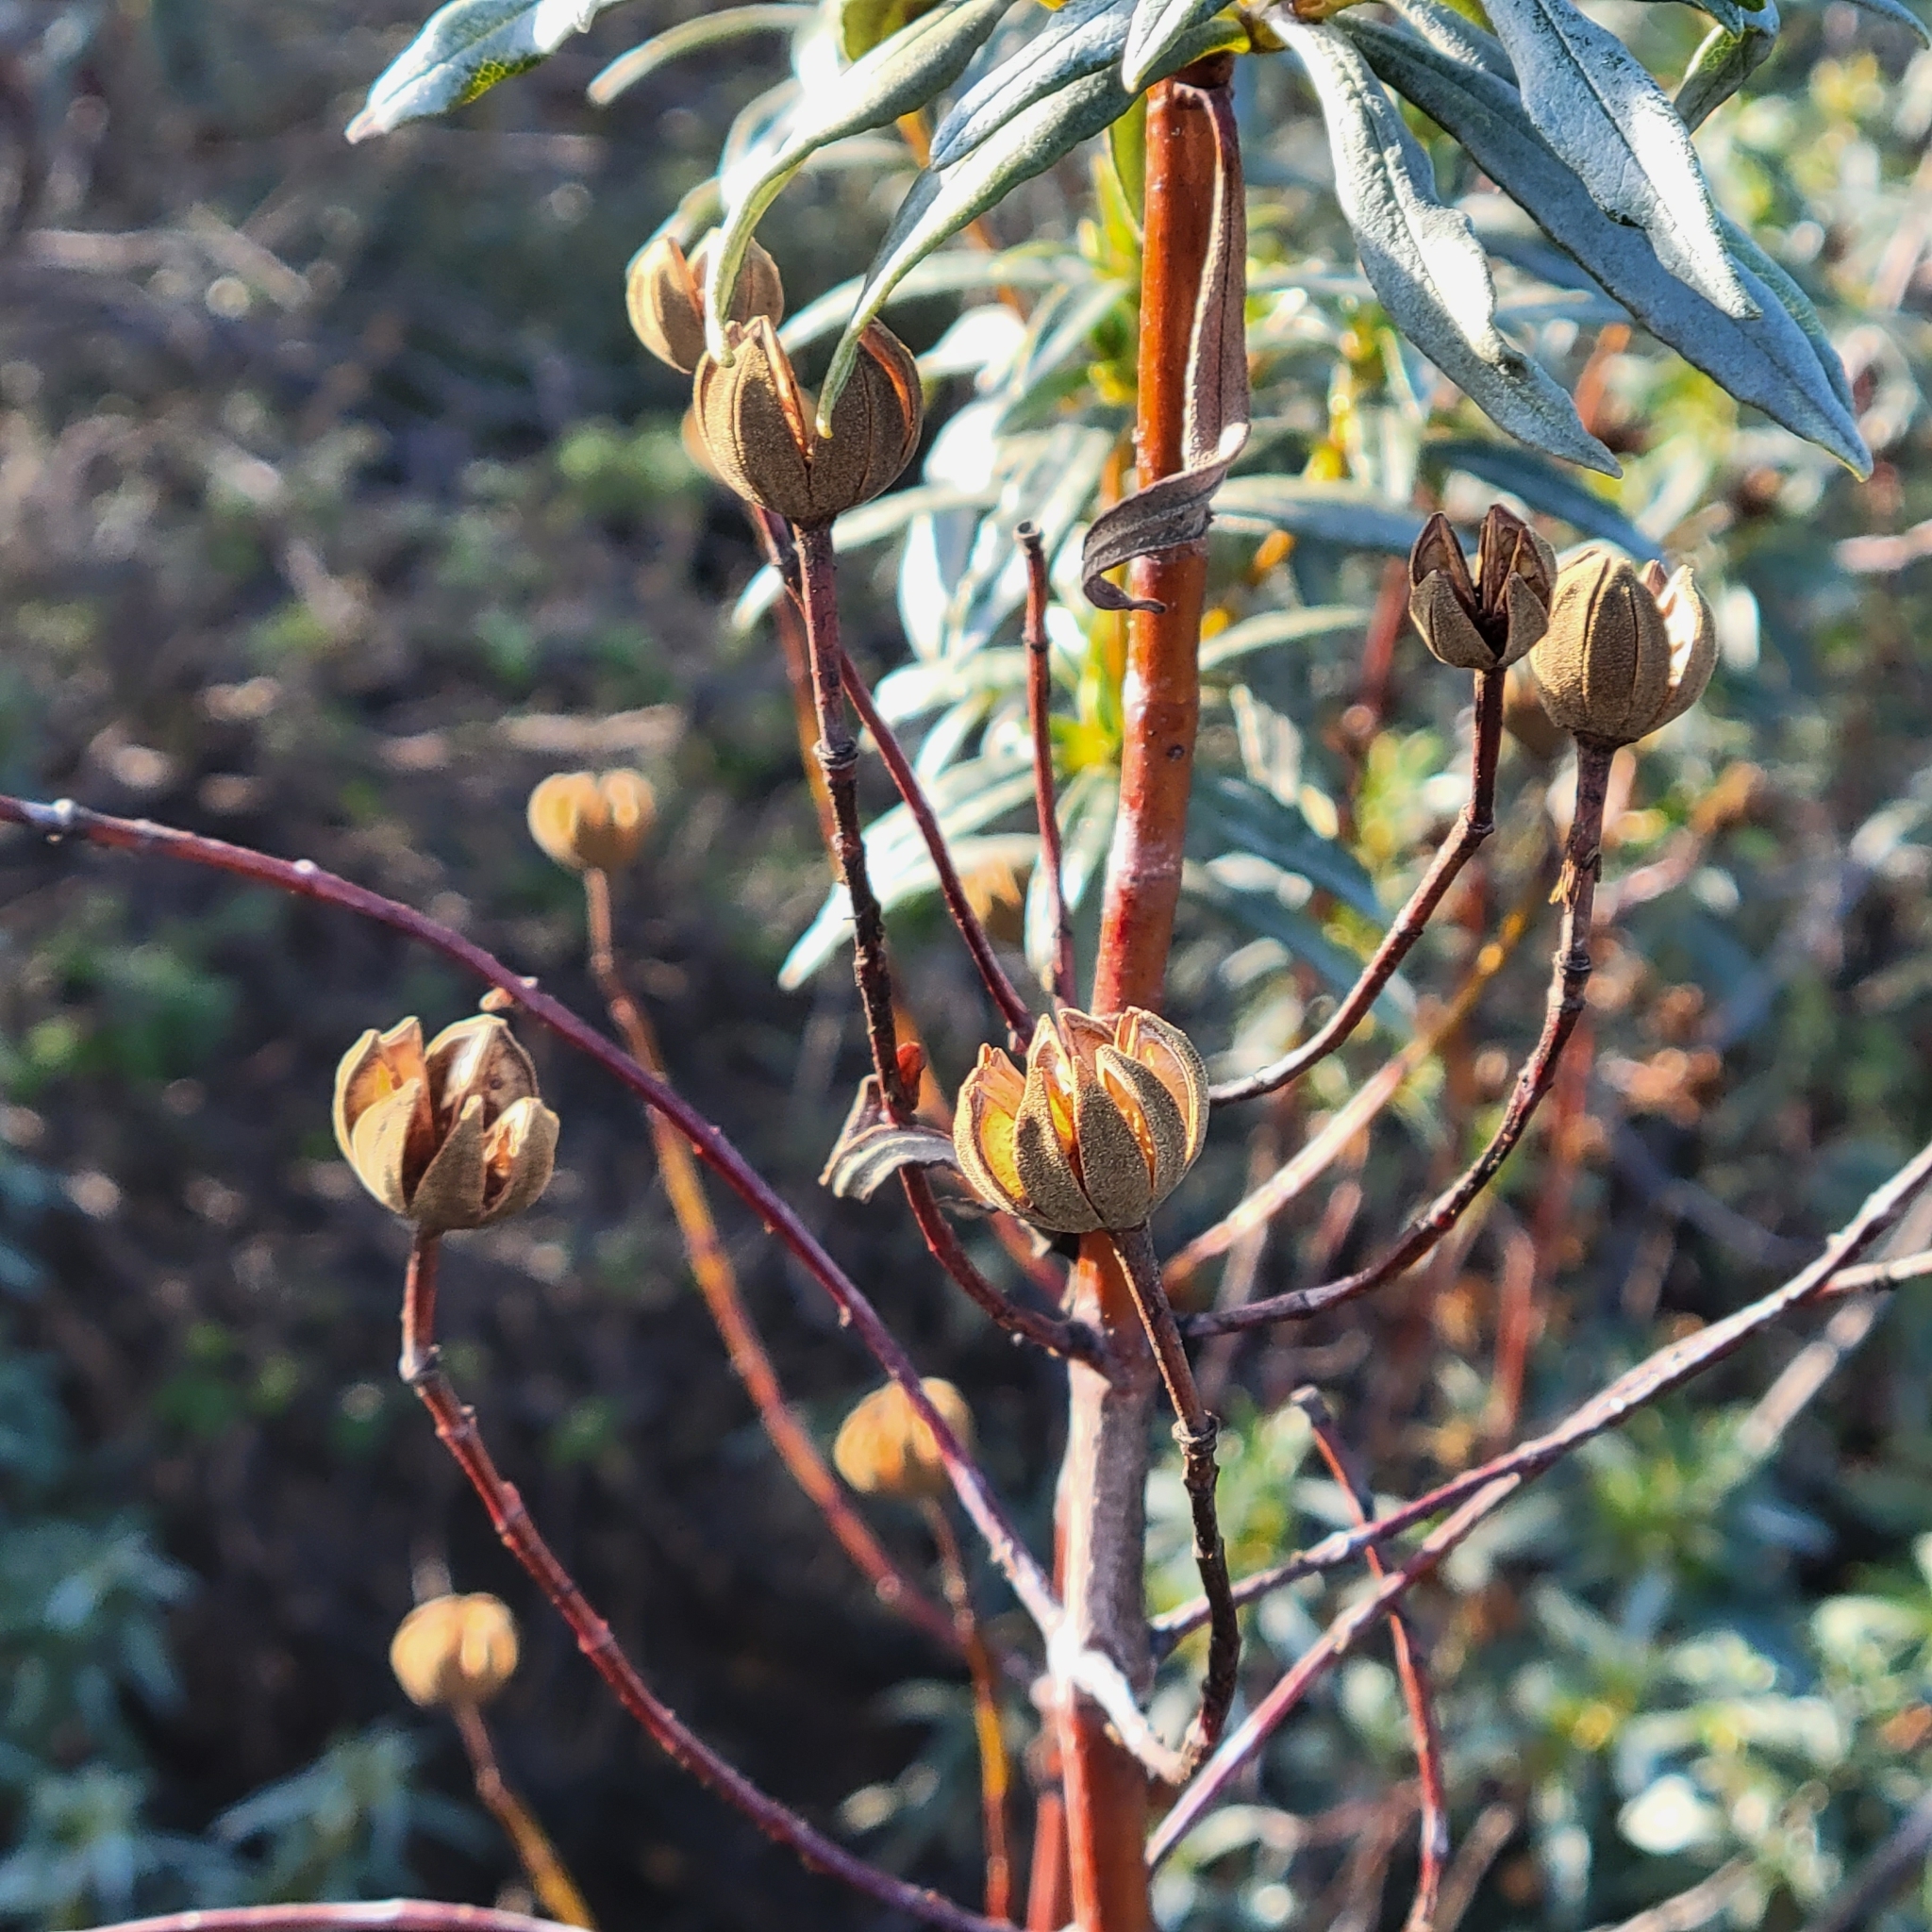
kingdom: Plantae
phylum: Tracheophyta
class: Magnoliopsida
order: Malvales
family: Cistaceae
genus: Cistus
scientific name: Cistus ladanifer
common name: Common gum cistus
